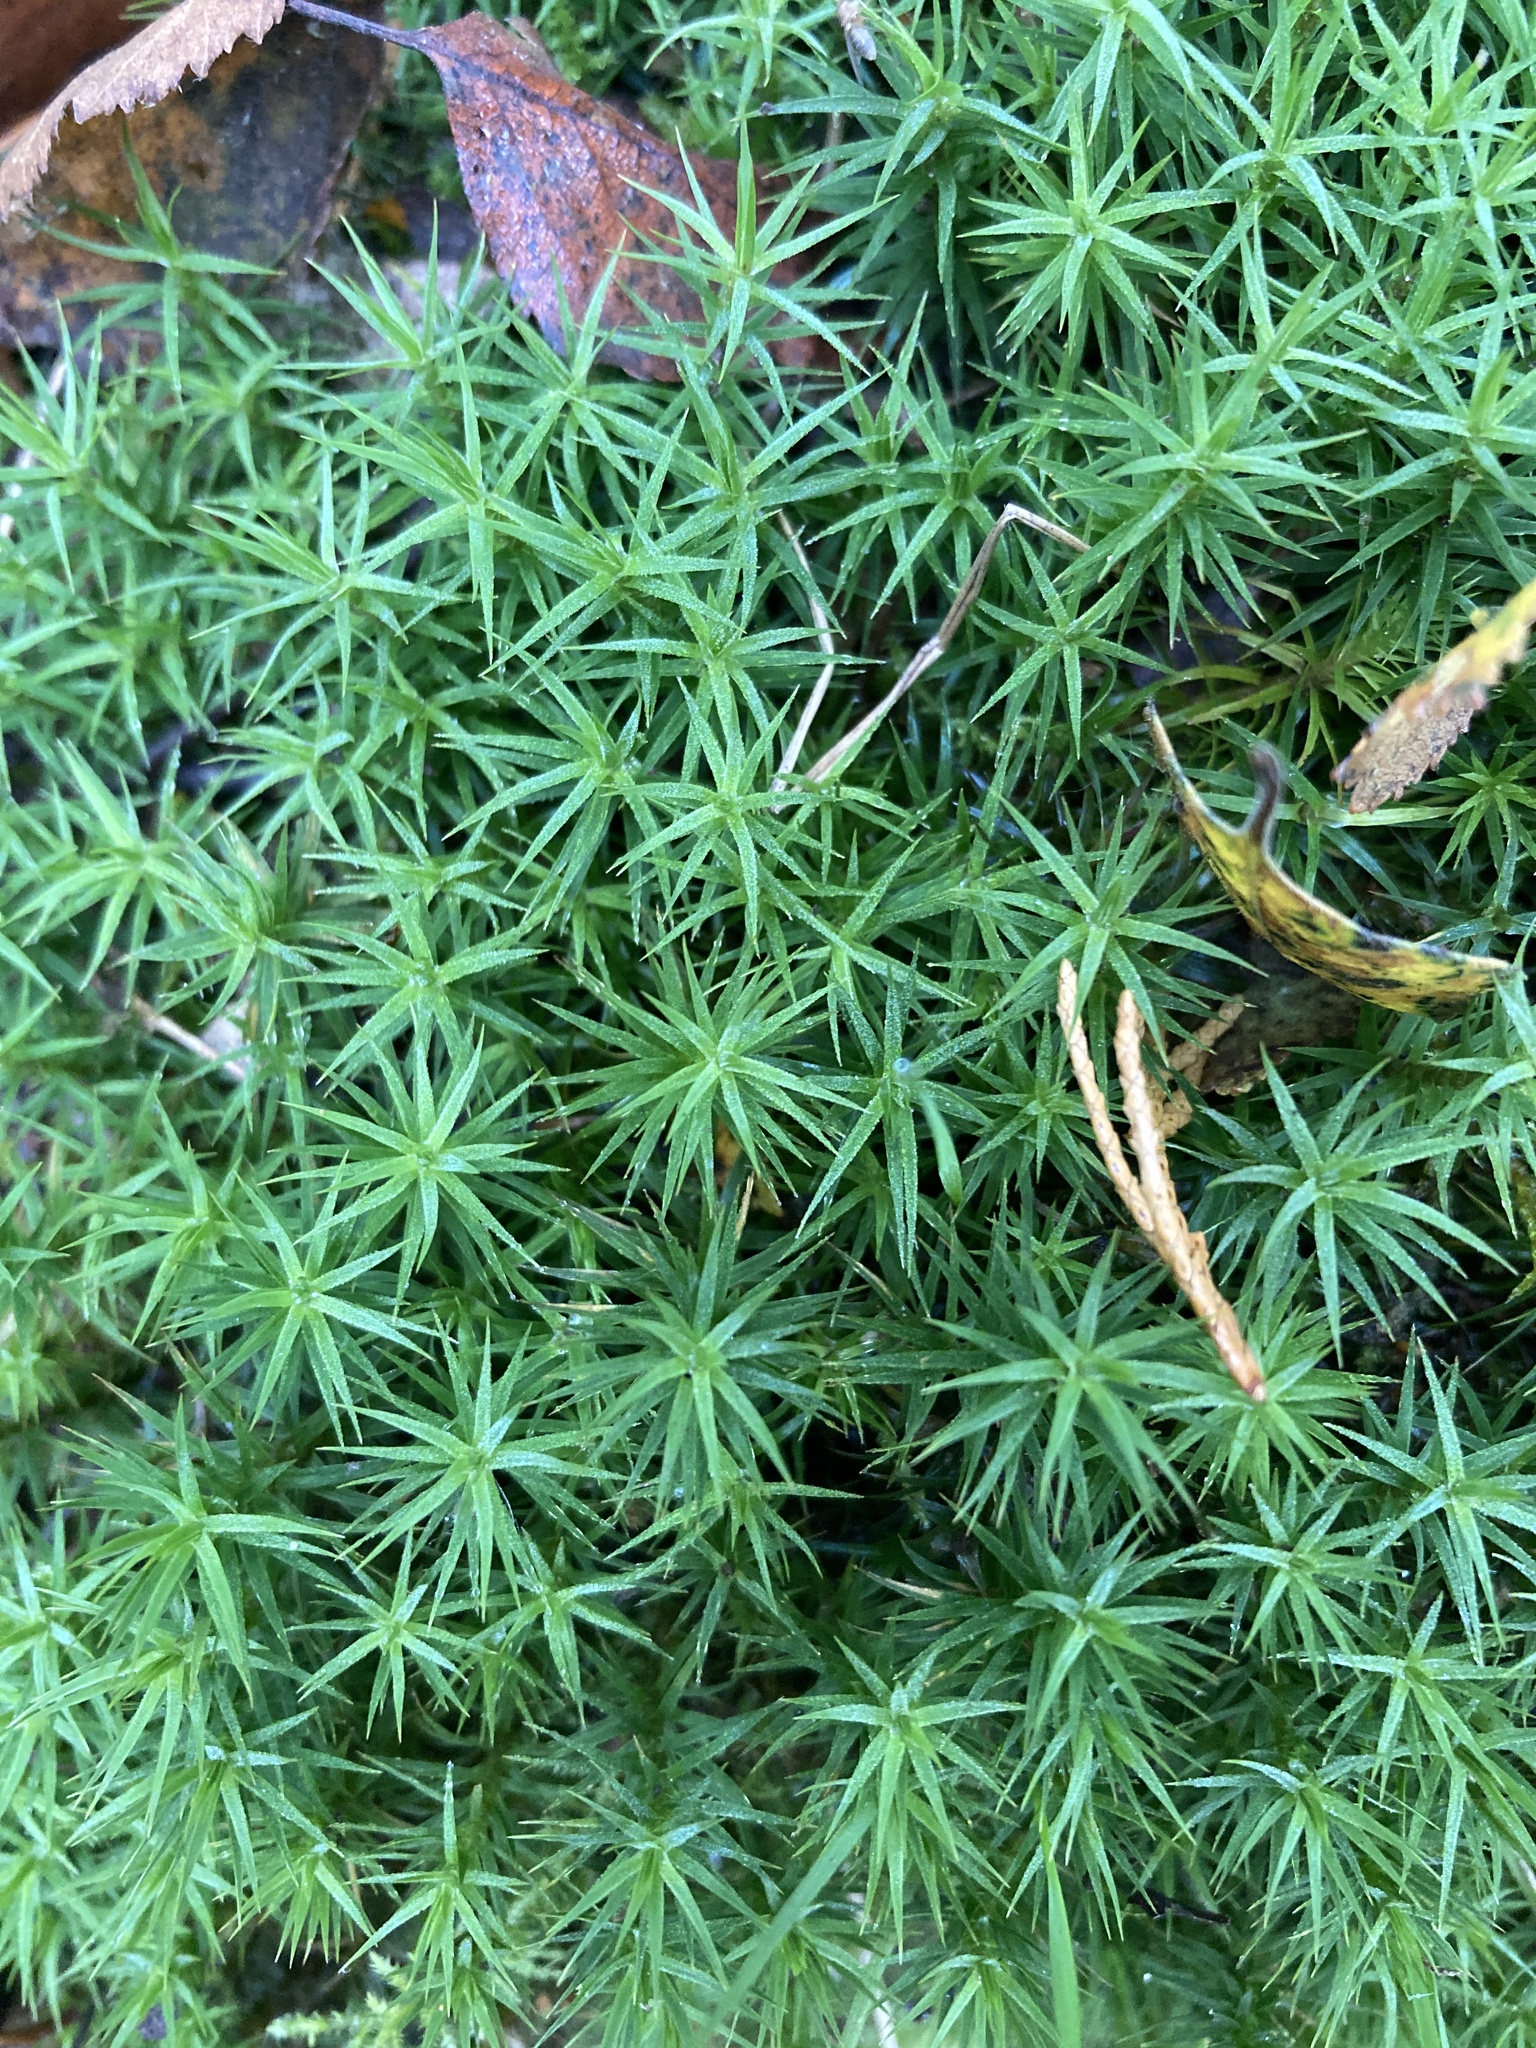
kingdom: Plantae
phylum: Bryophyta
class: Polytrichopsida
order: Polytrichales
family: Polytrichaceae
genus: Polytrichum
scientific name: Polytrichum formosum
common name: Bank haircap moss
